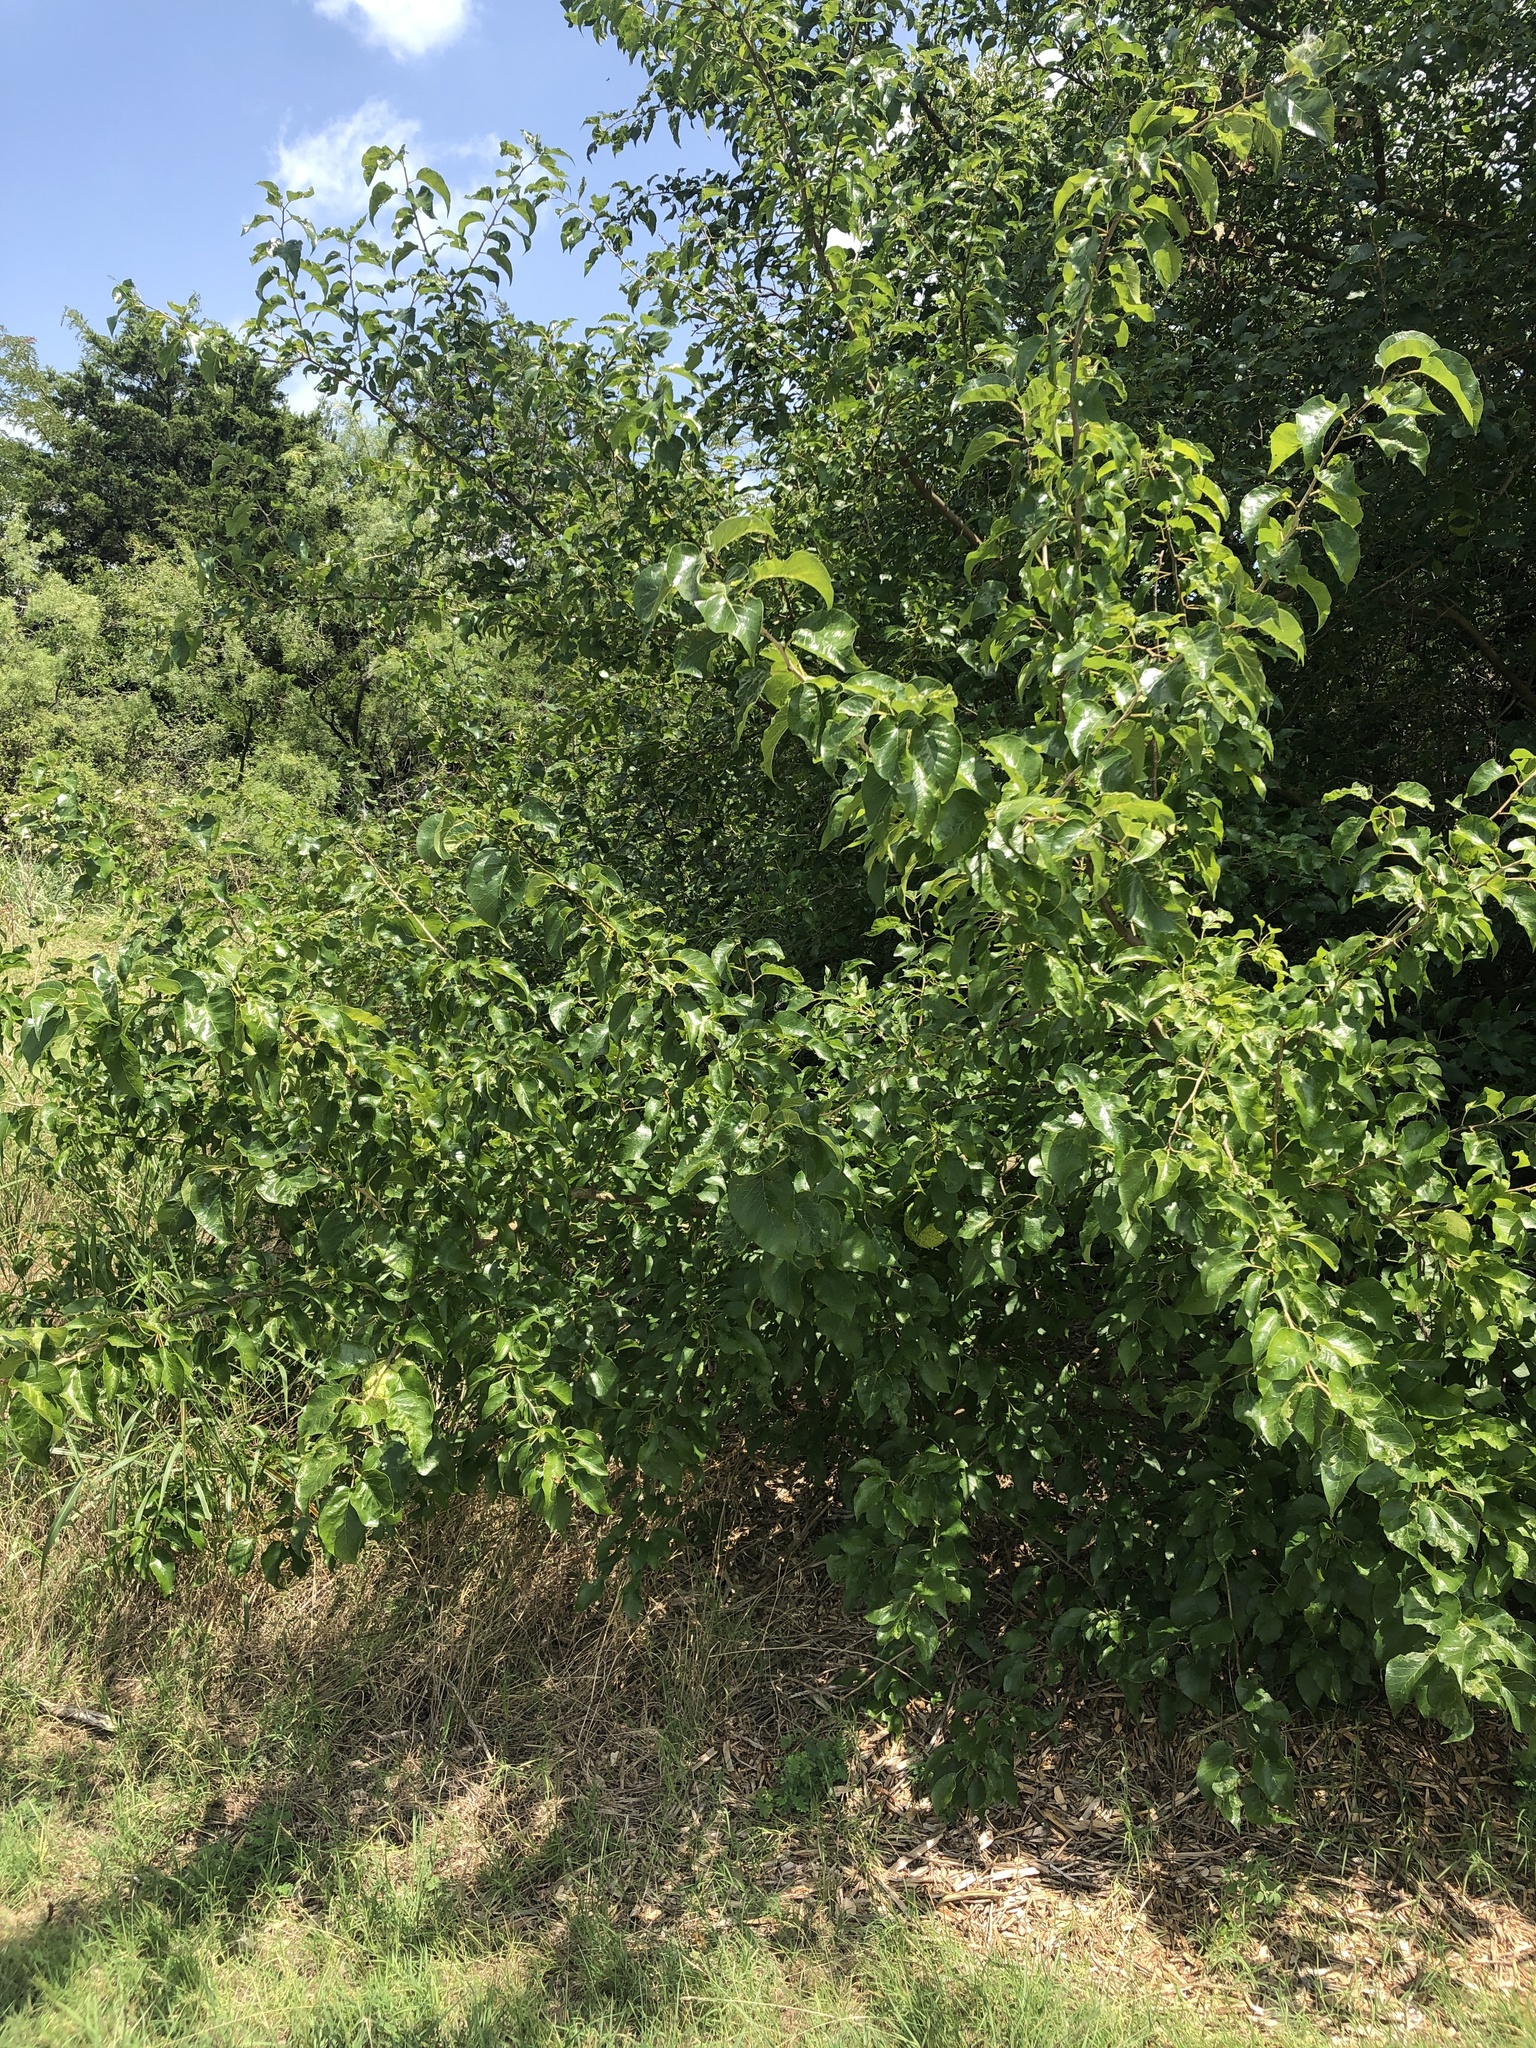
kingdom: Plantae
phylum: Tracheophyta
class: Magnoliopsida
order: Rosales
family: Moraceae
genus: Maclura
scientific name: Maclura pomifera
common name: Osage-orange
